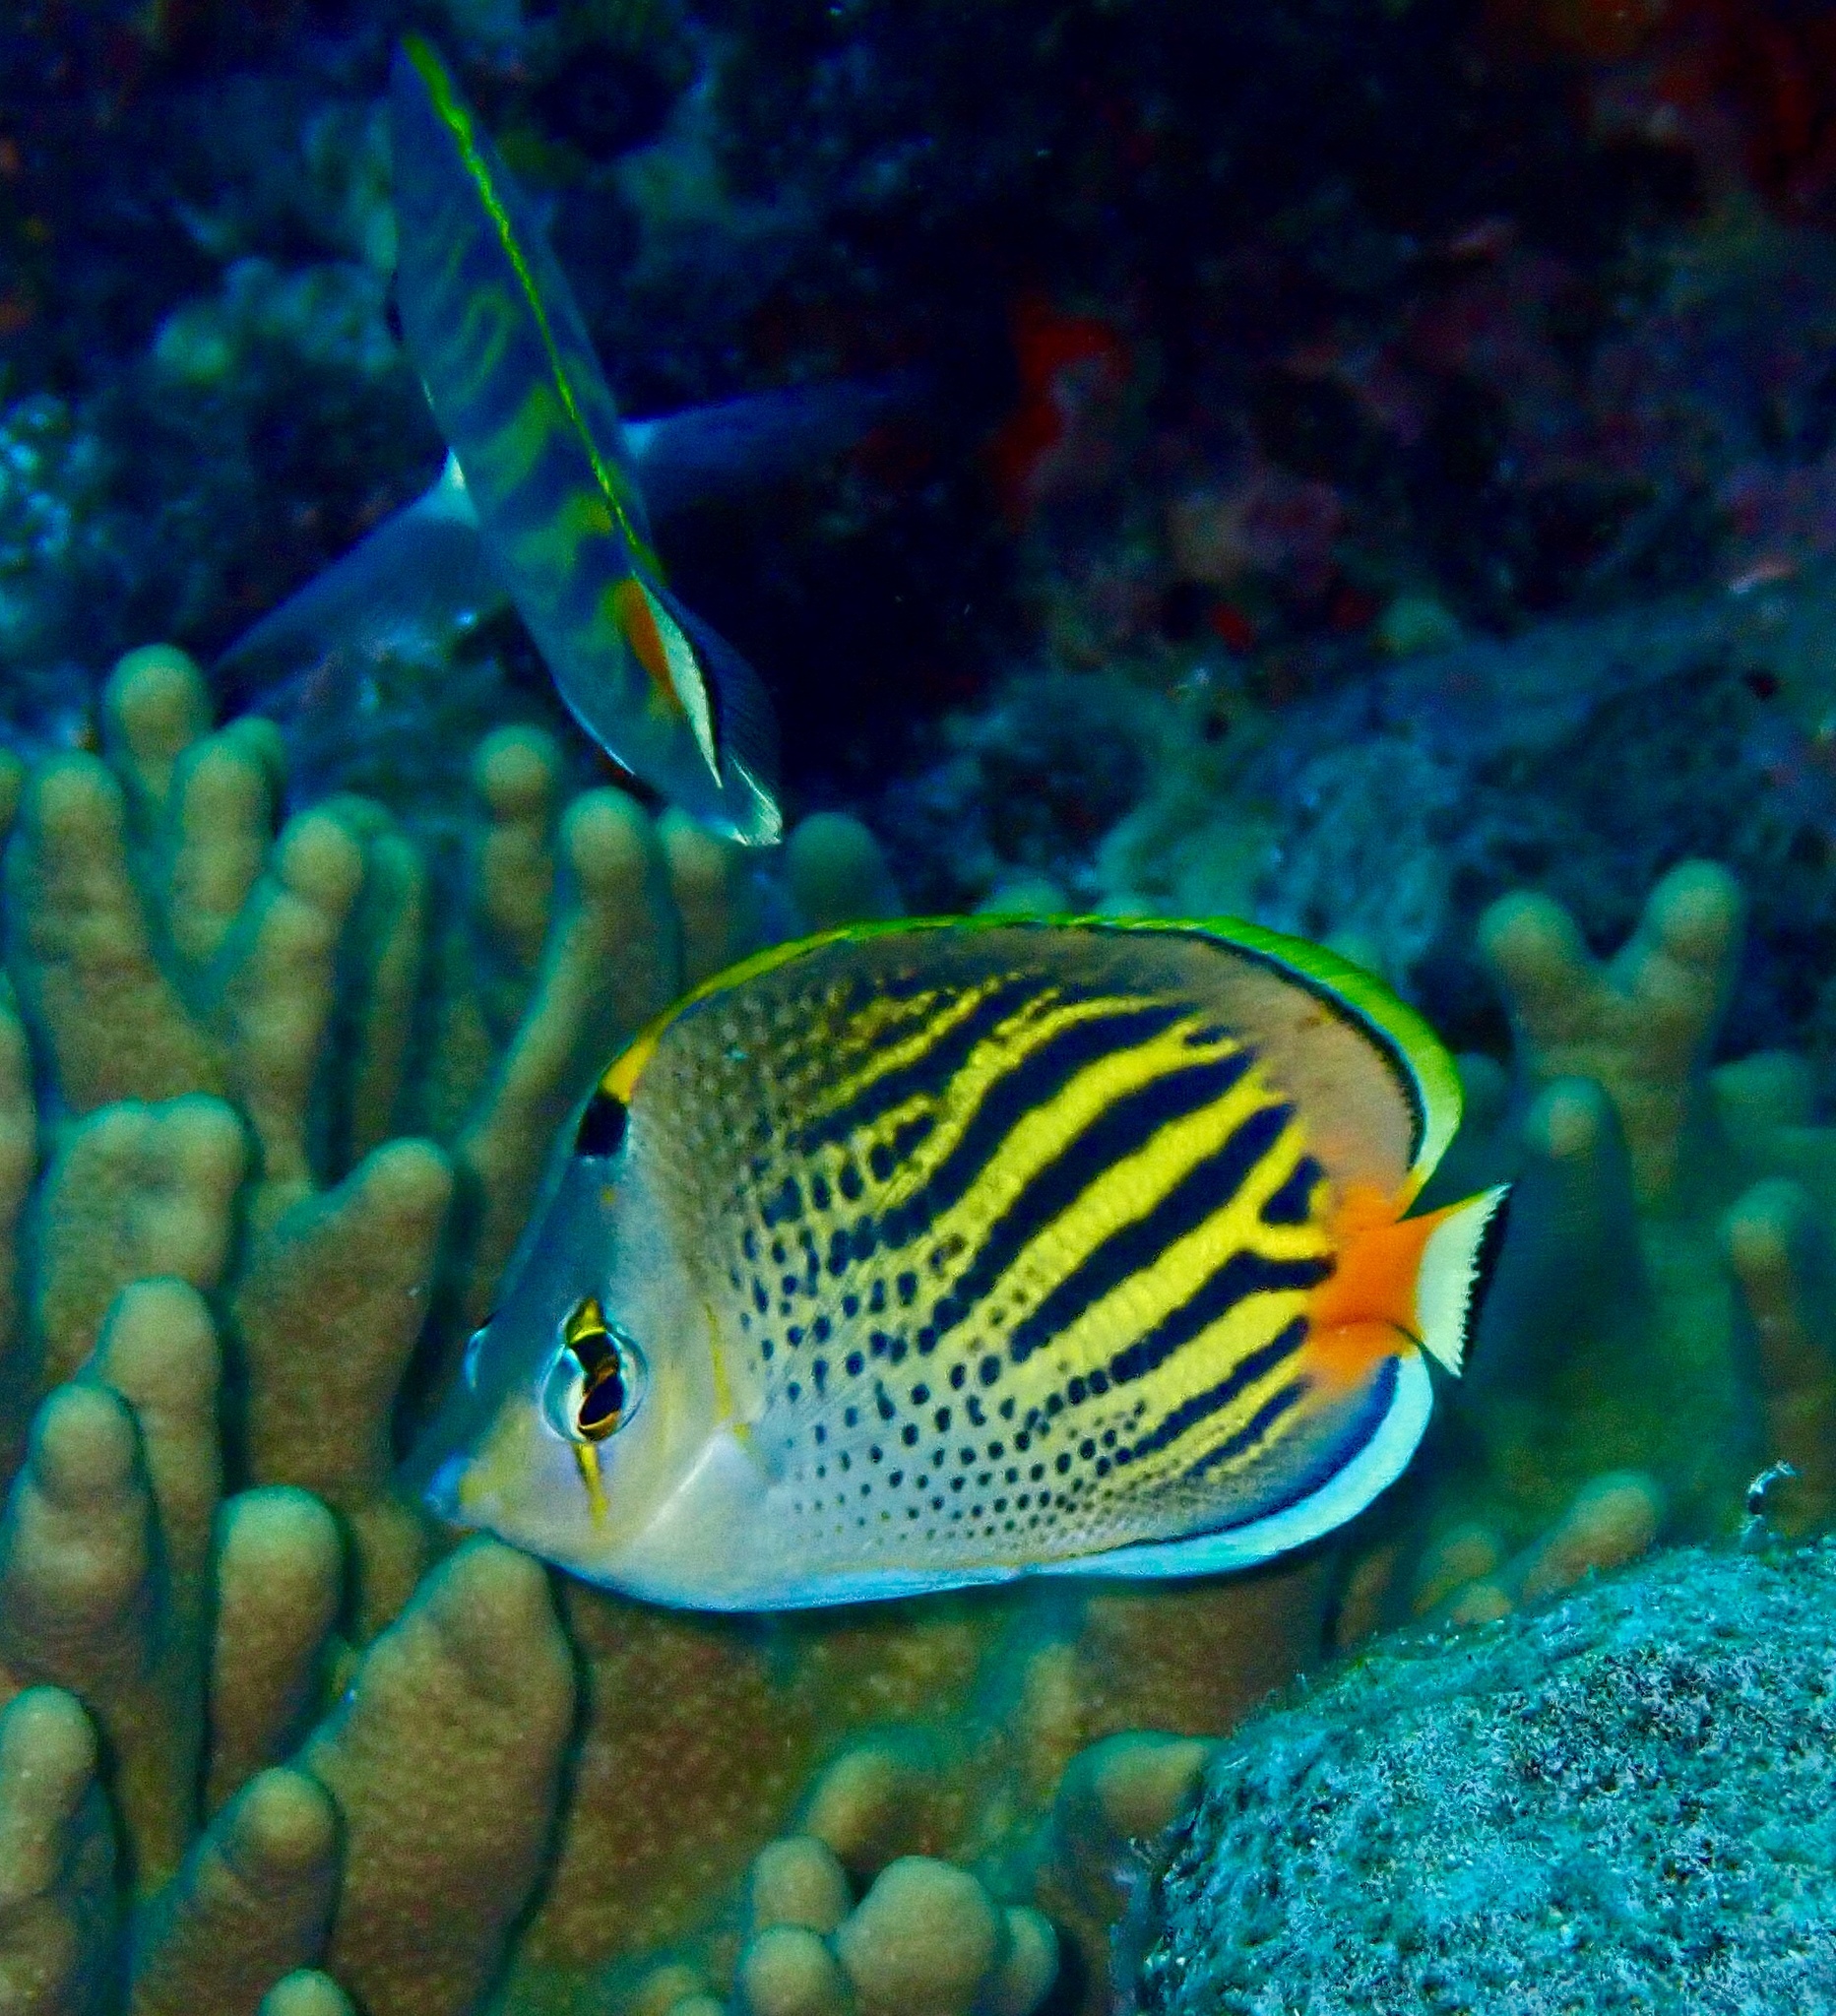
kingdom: Animalia
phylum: Chordata
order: Perciformes
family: Chaetodontidae
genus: Chaetodon
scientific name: Chaetodon pelewensis
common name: Dot-and-dash butterflyfish
